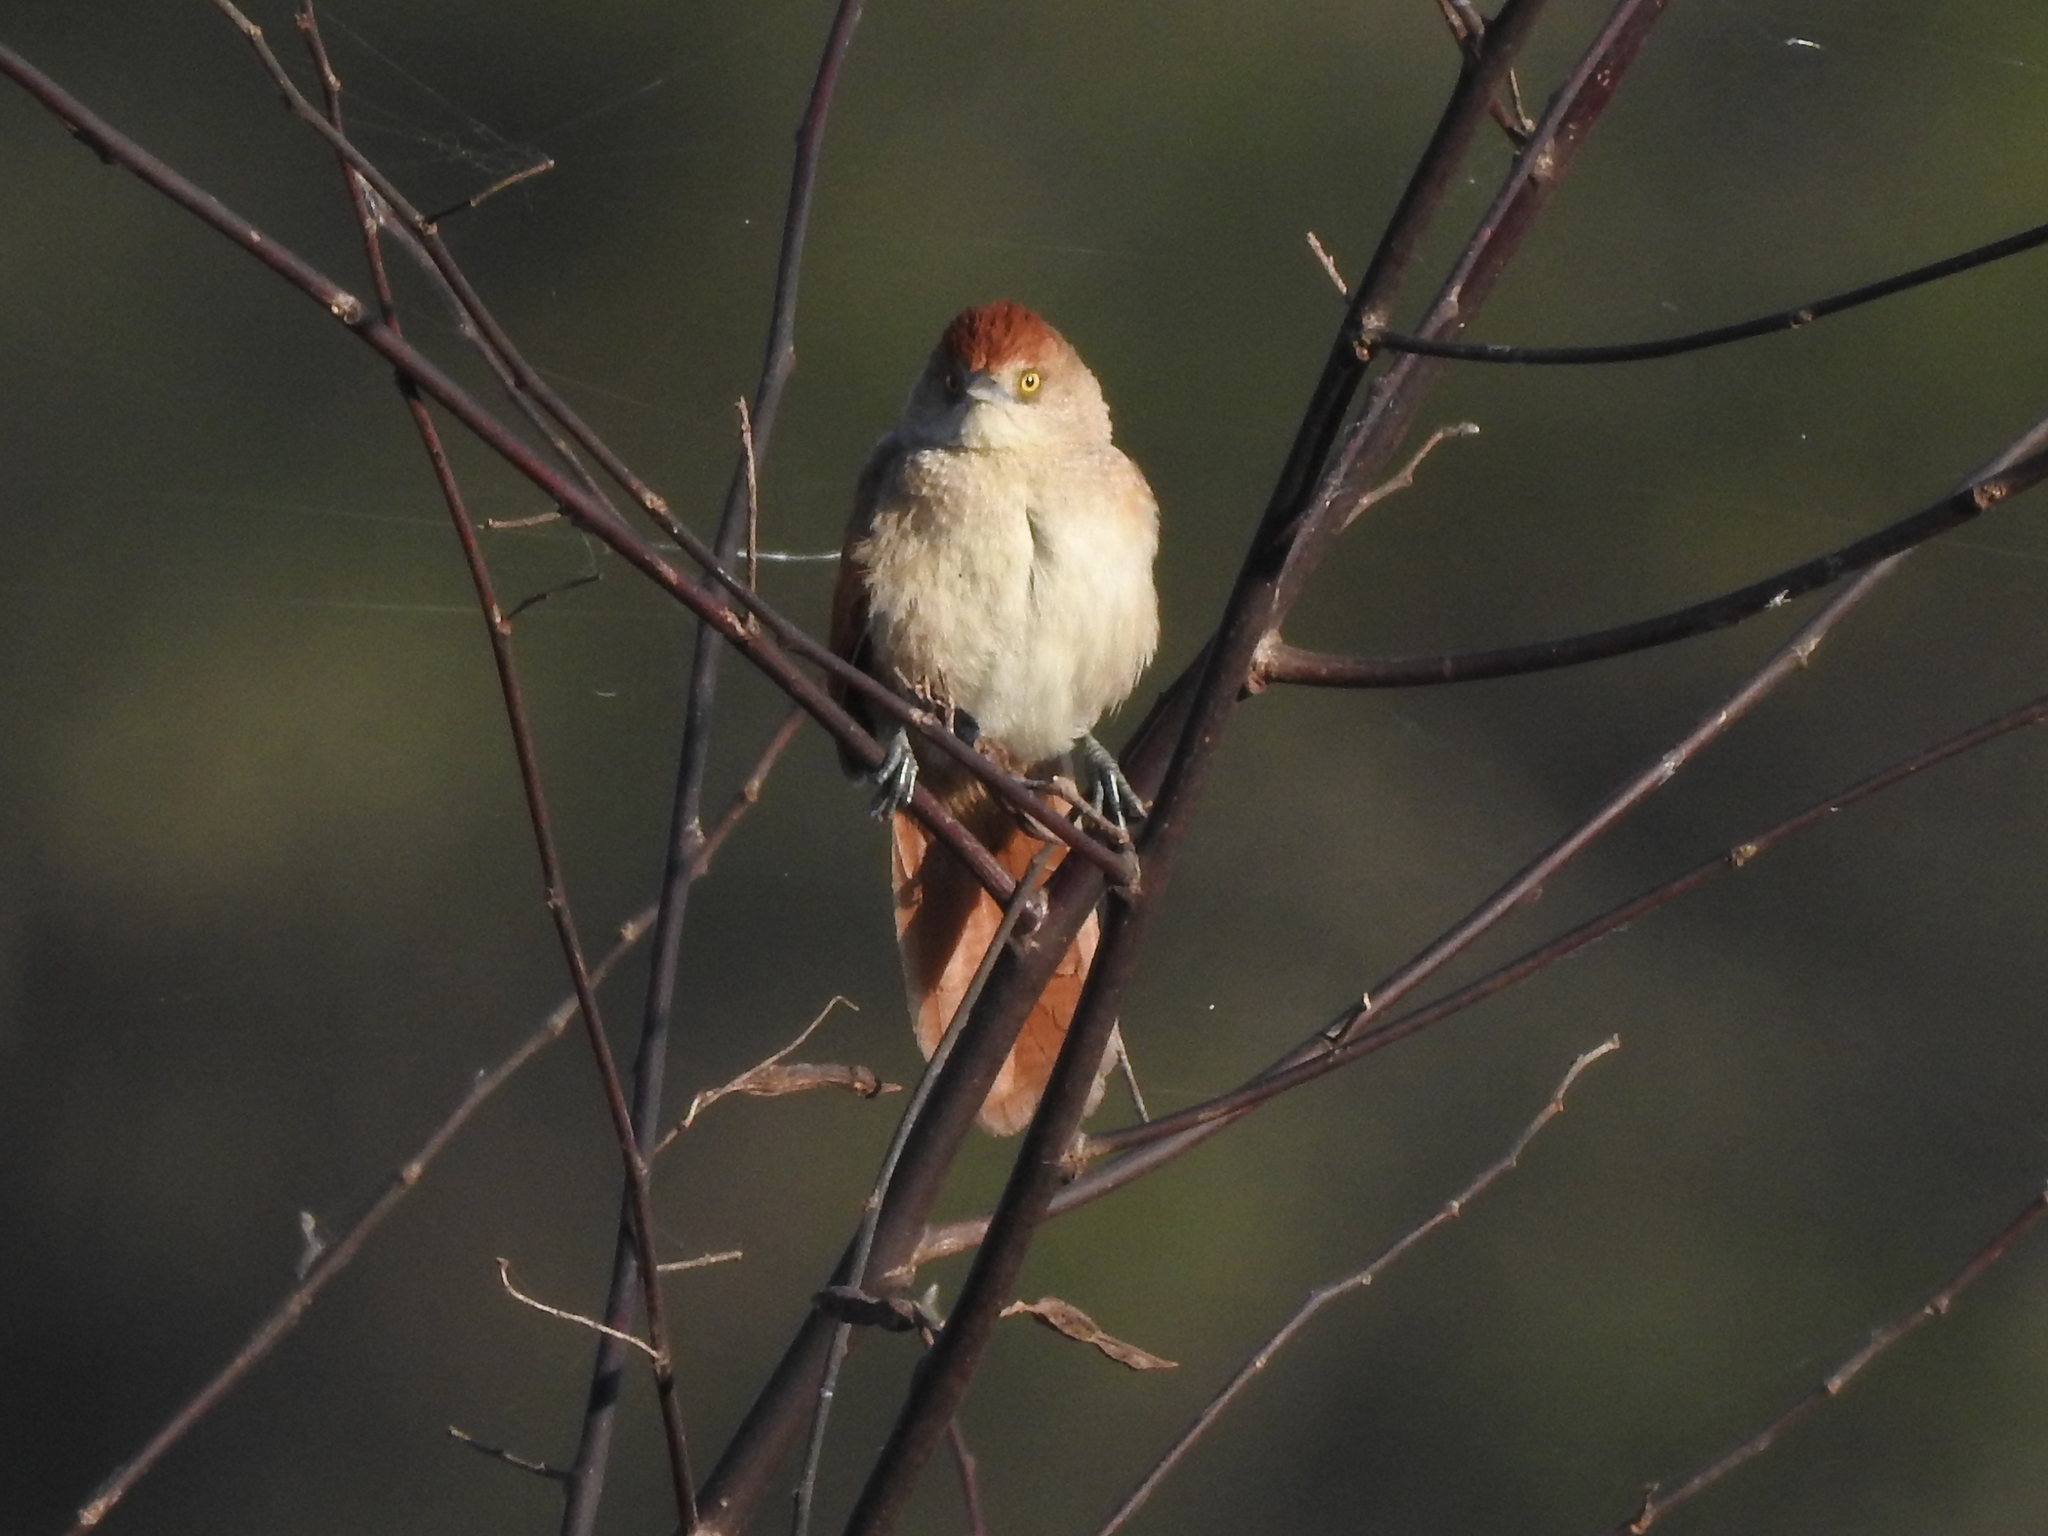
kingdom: Animalia
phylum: Chordata
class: Aves
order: Passeriformes
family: Furnariidae
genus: Phacellodomus
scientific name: Phacellodomus ruber
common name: Greater thornbird
